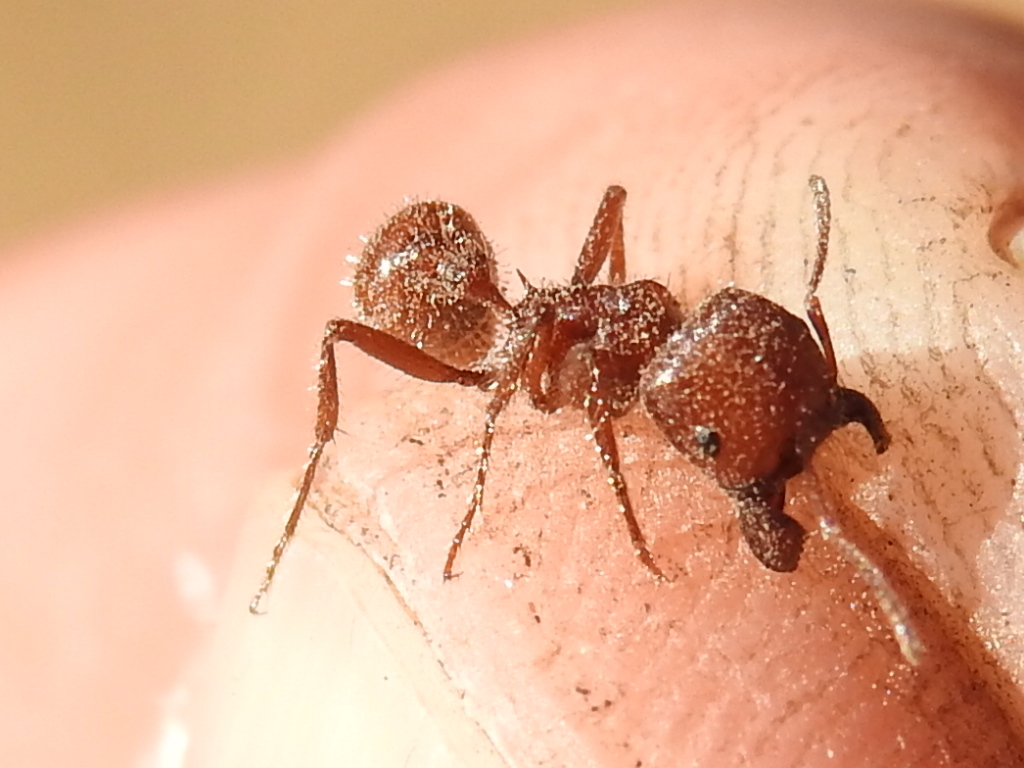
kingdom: Animalia
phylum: Arthropoda
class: Insecta
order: Hymenoptera
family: Formicidae
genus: Pogonomyrmex
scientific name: Pogonomyrmex barbatus
